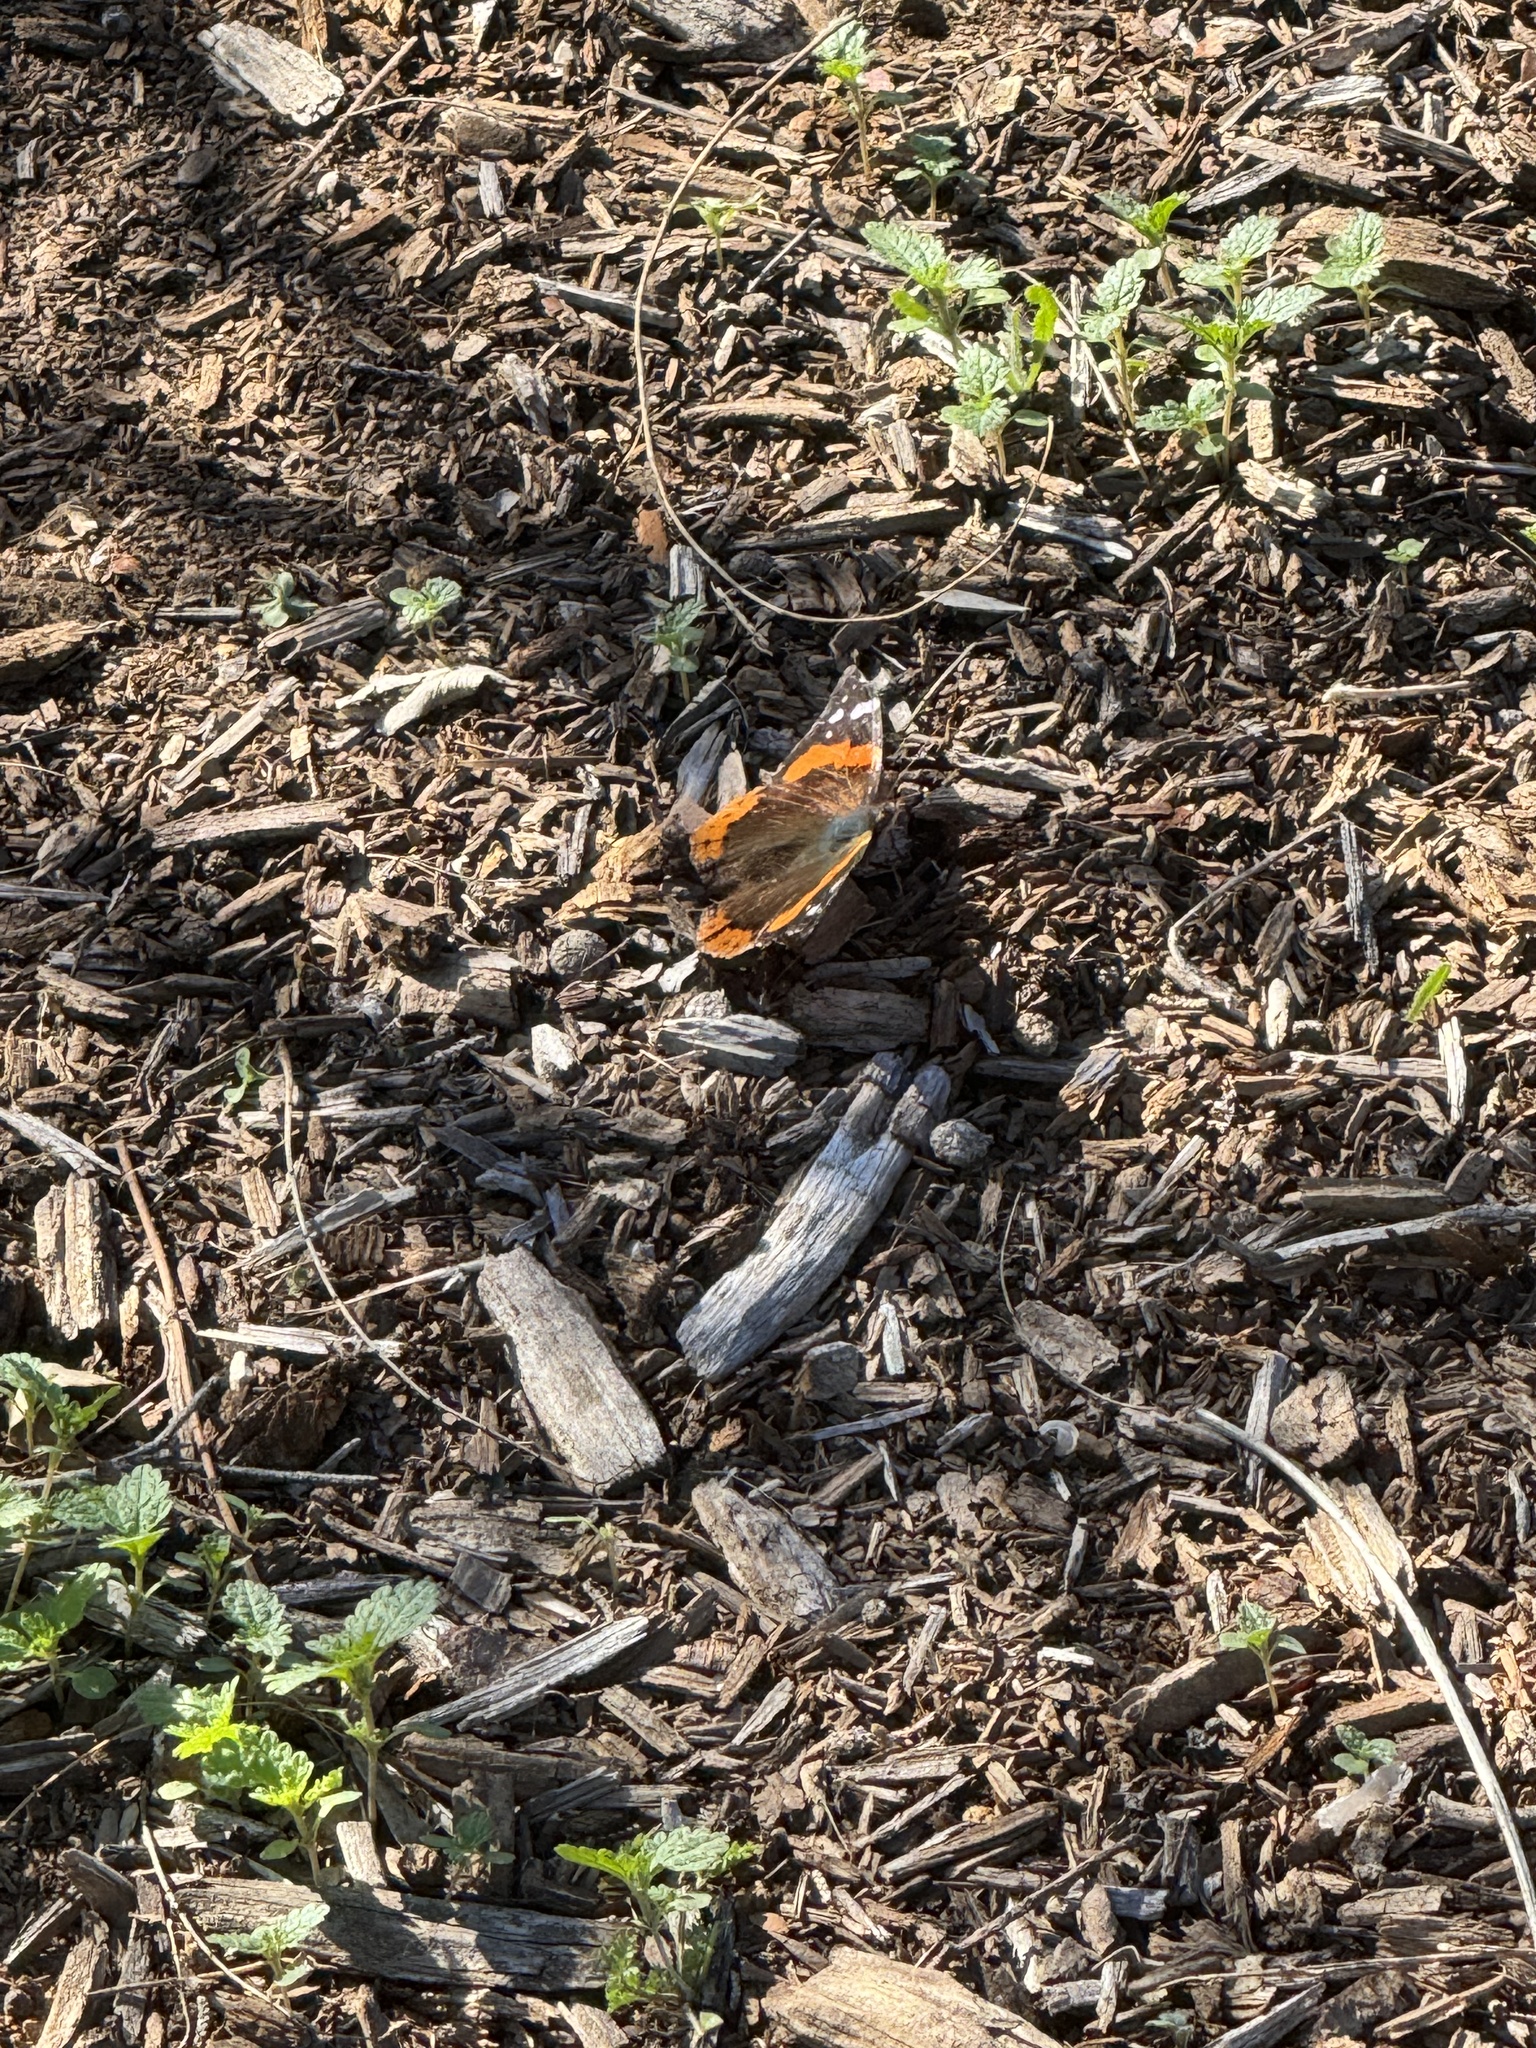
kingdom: Animalia
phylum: Arthropoda
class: Insecta
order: Lepidoptera
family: Nymphalidae
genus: Vanessa
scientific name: Vanessa atalanta
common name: Red admiral
